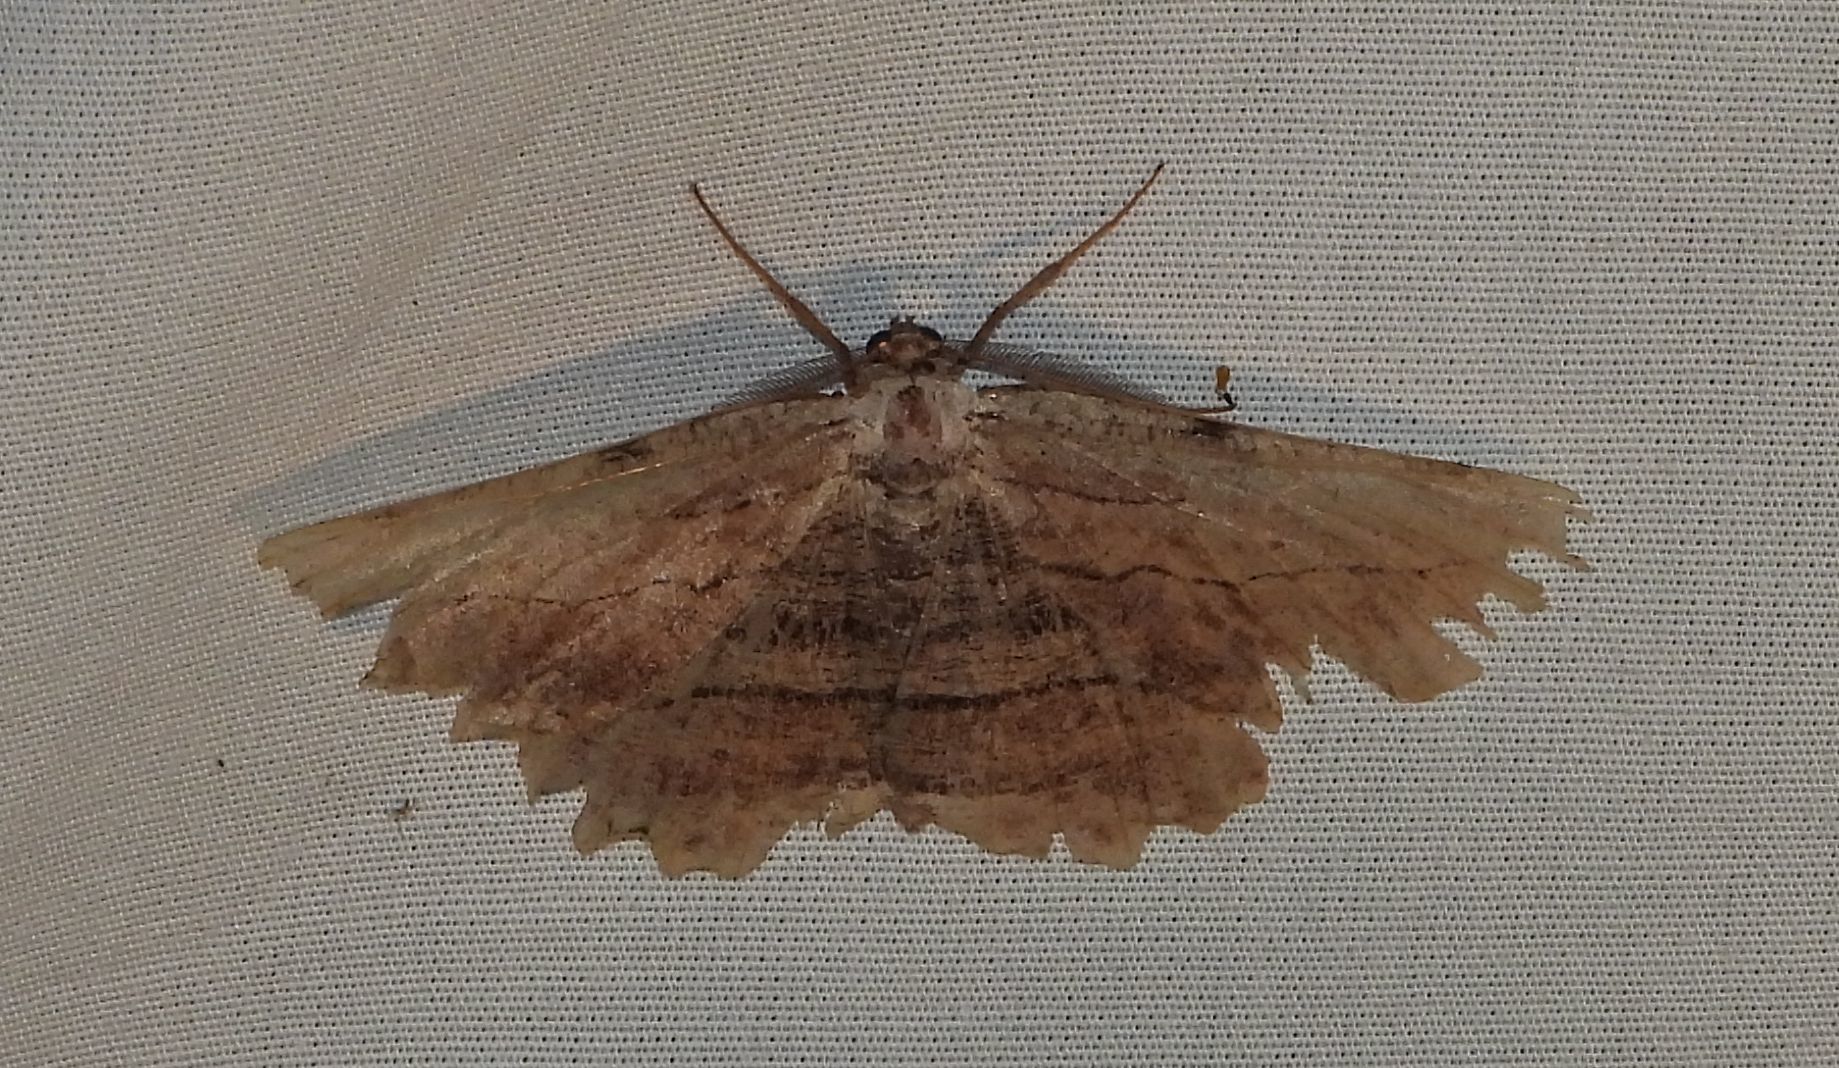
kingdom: Animalia
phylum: Arthropoda
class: Insecta
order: Lepidoptera
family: Geometridae
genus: Lytrosis
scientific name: Lytrosis unitaria
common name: Common lytrosis
